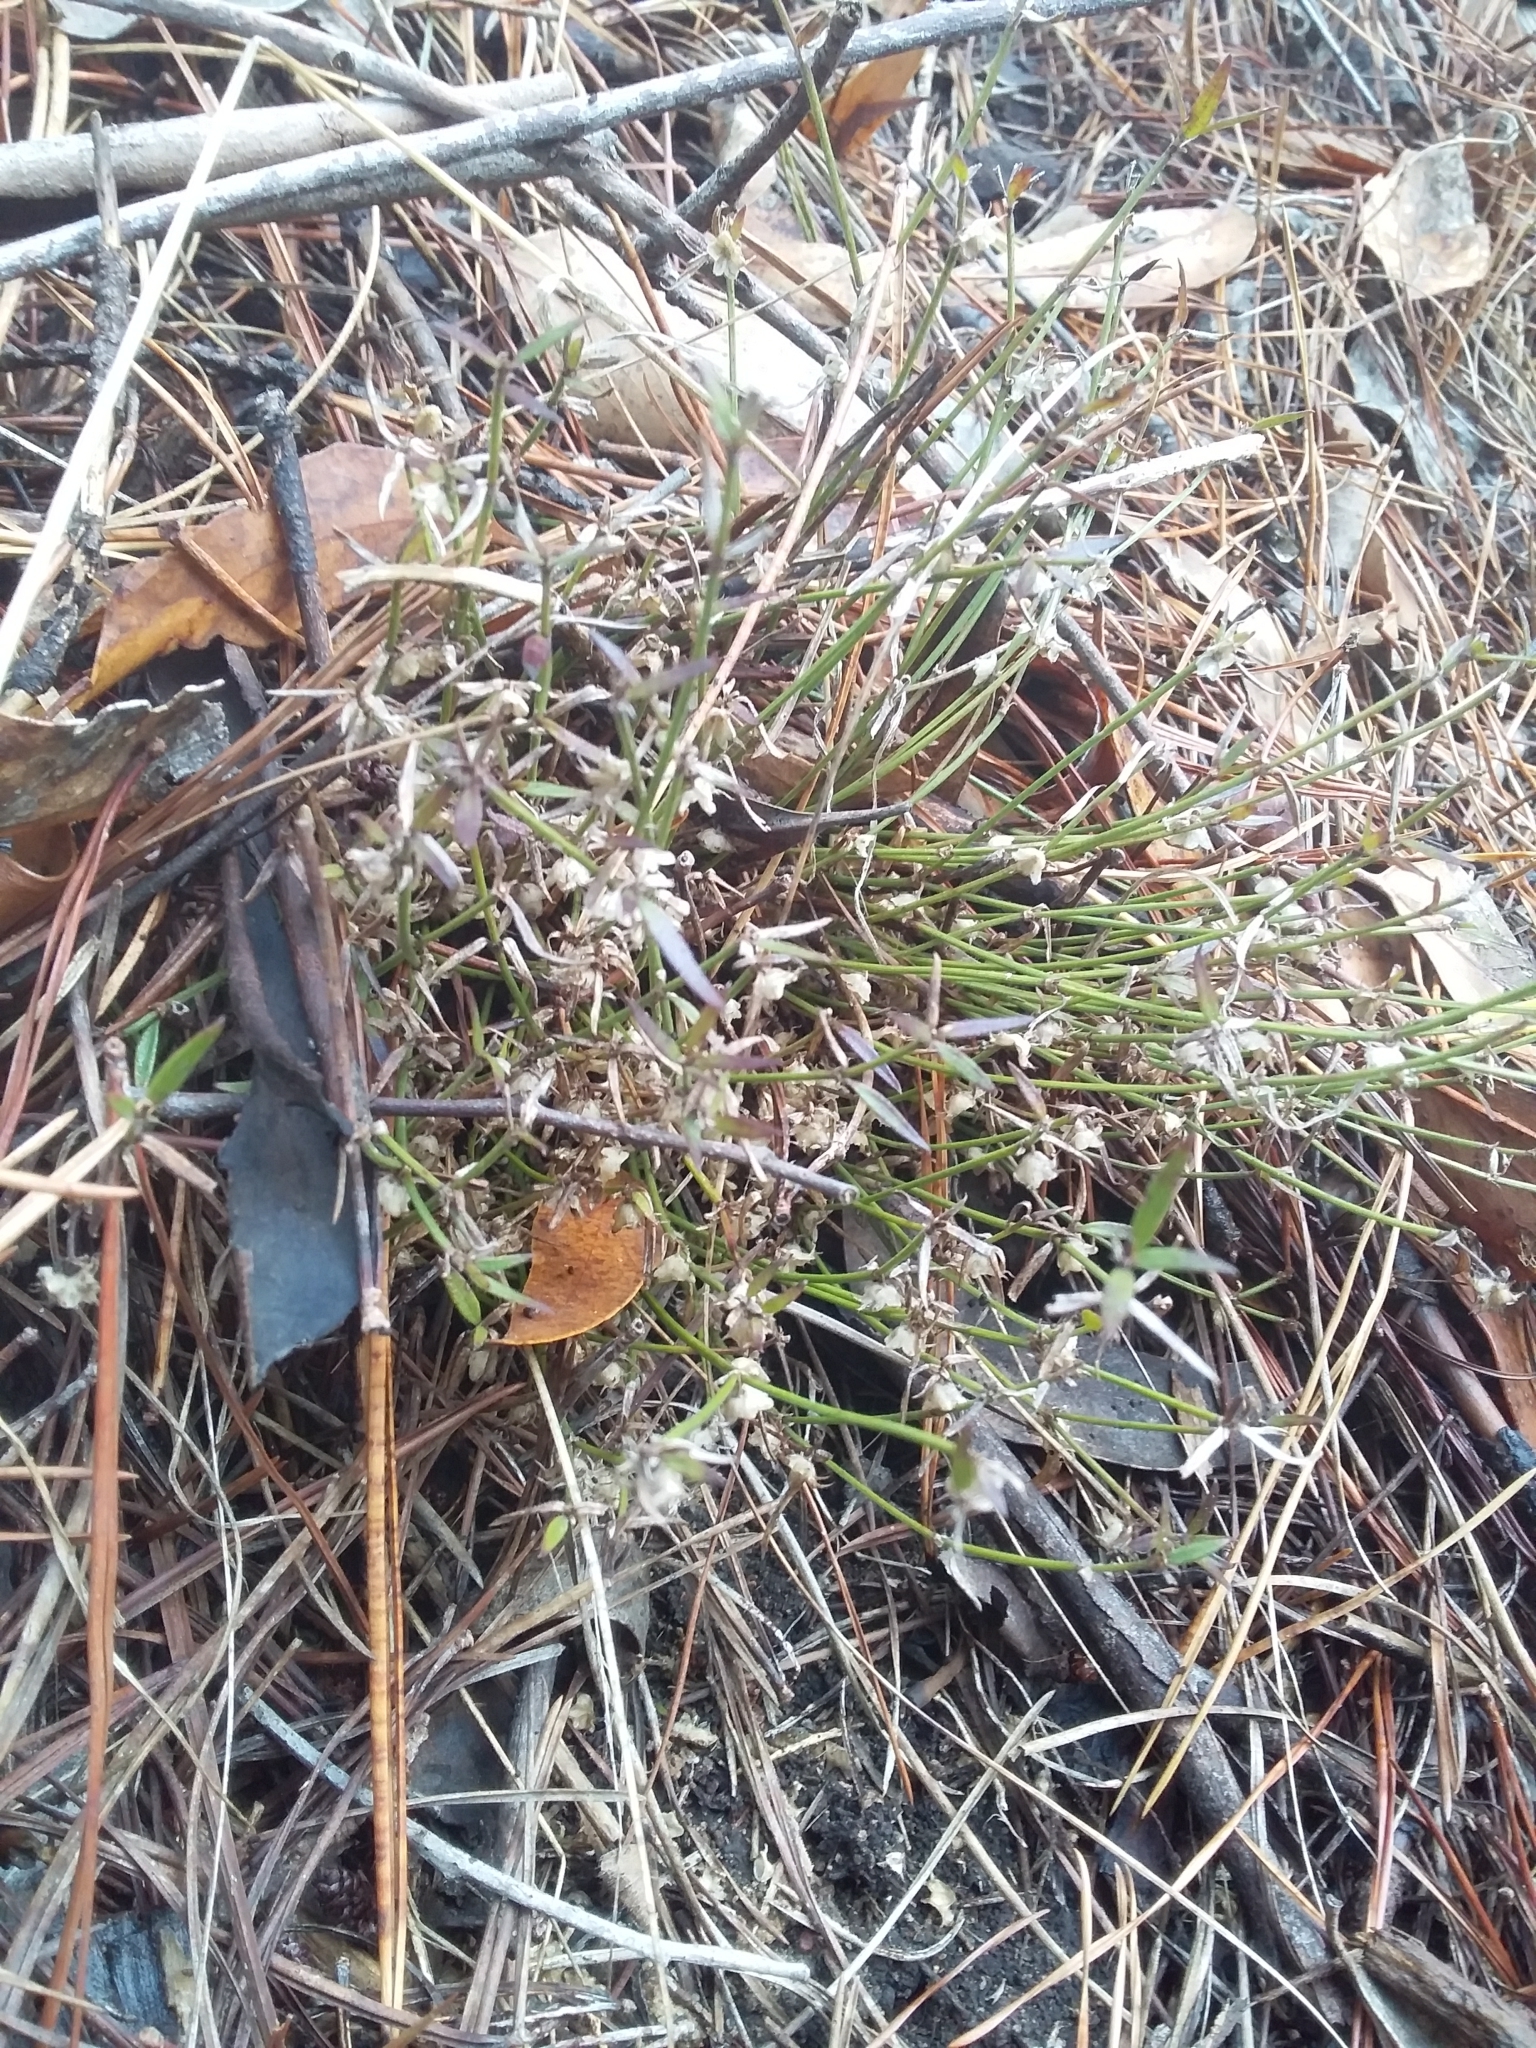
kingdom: Plantae
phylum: Tracheophyta
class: Magnoliopsida
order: Gentianales
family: Rubiaceae
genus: Opercularia
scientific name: Opercularia turpis
